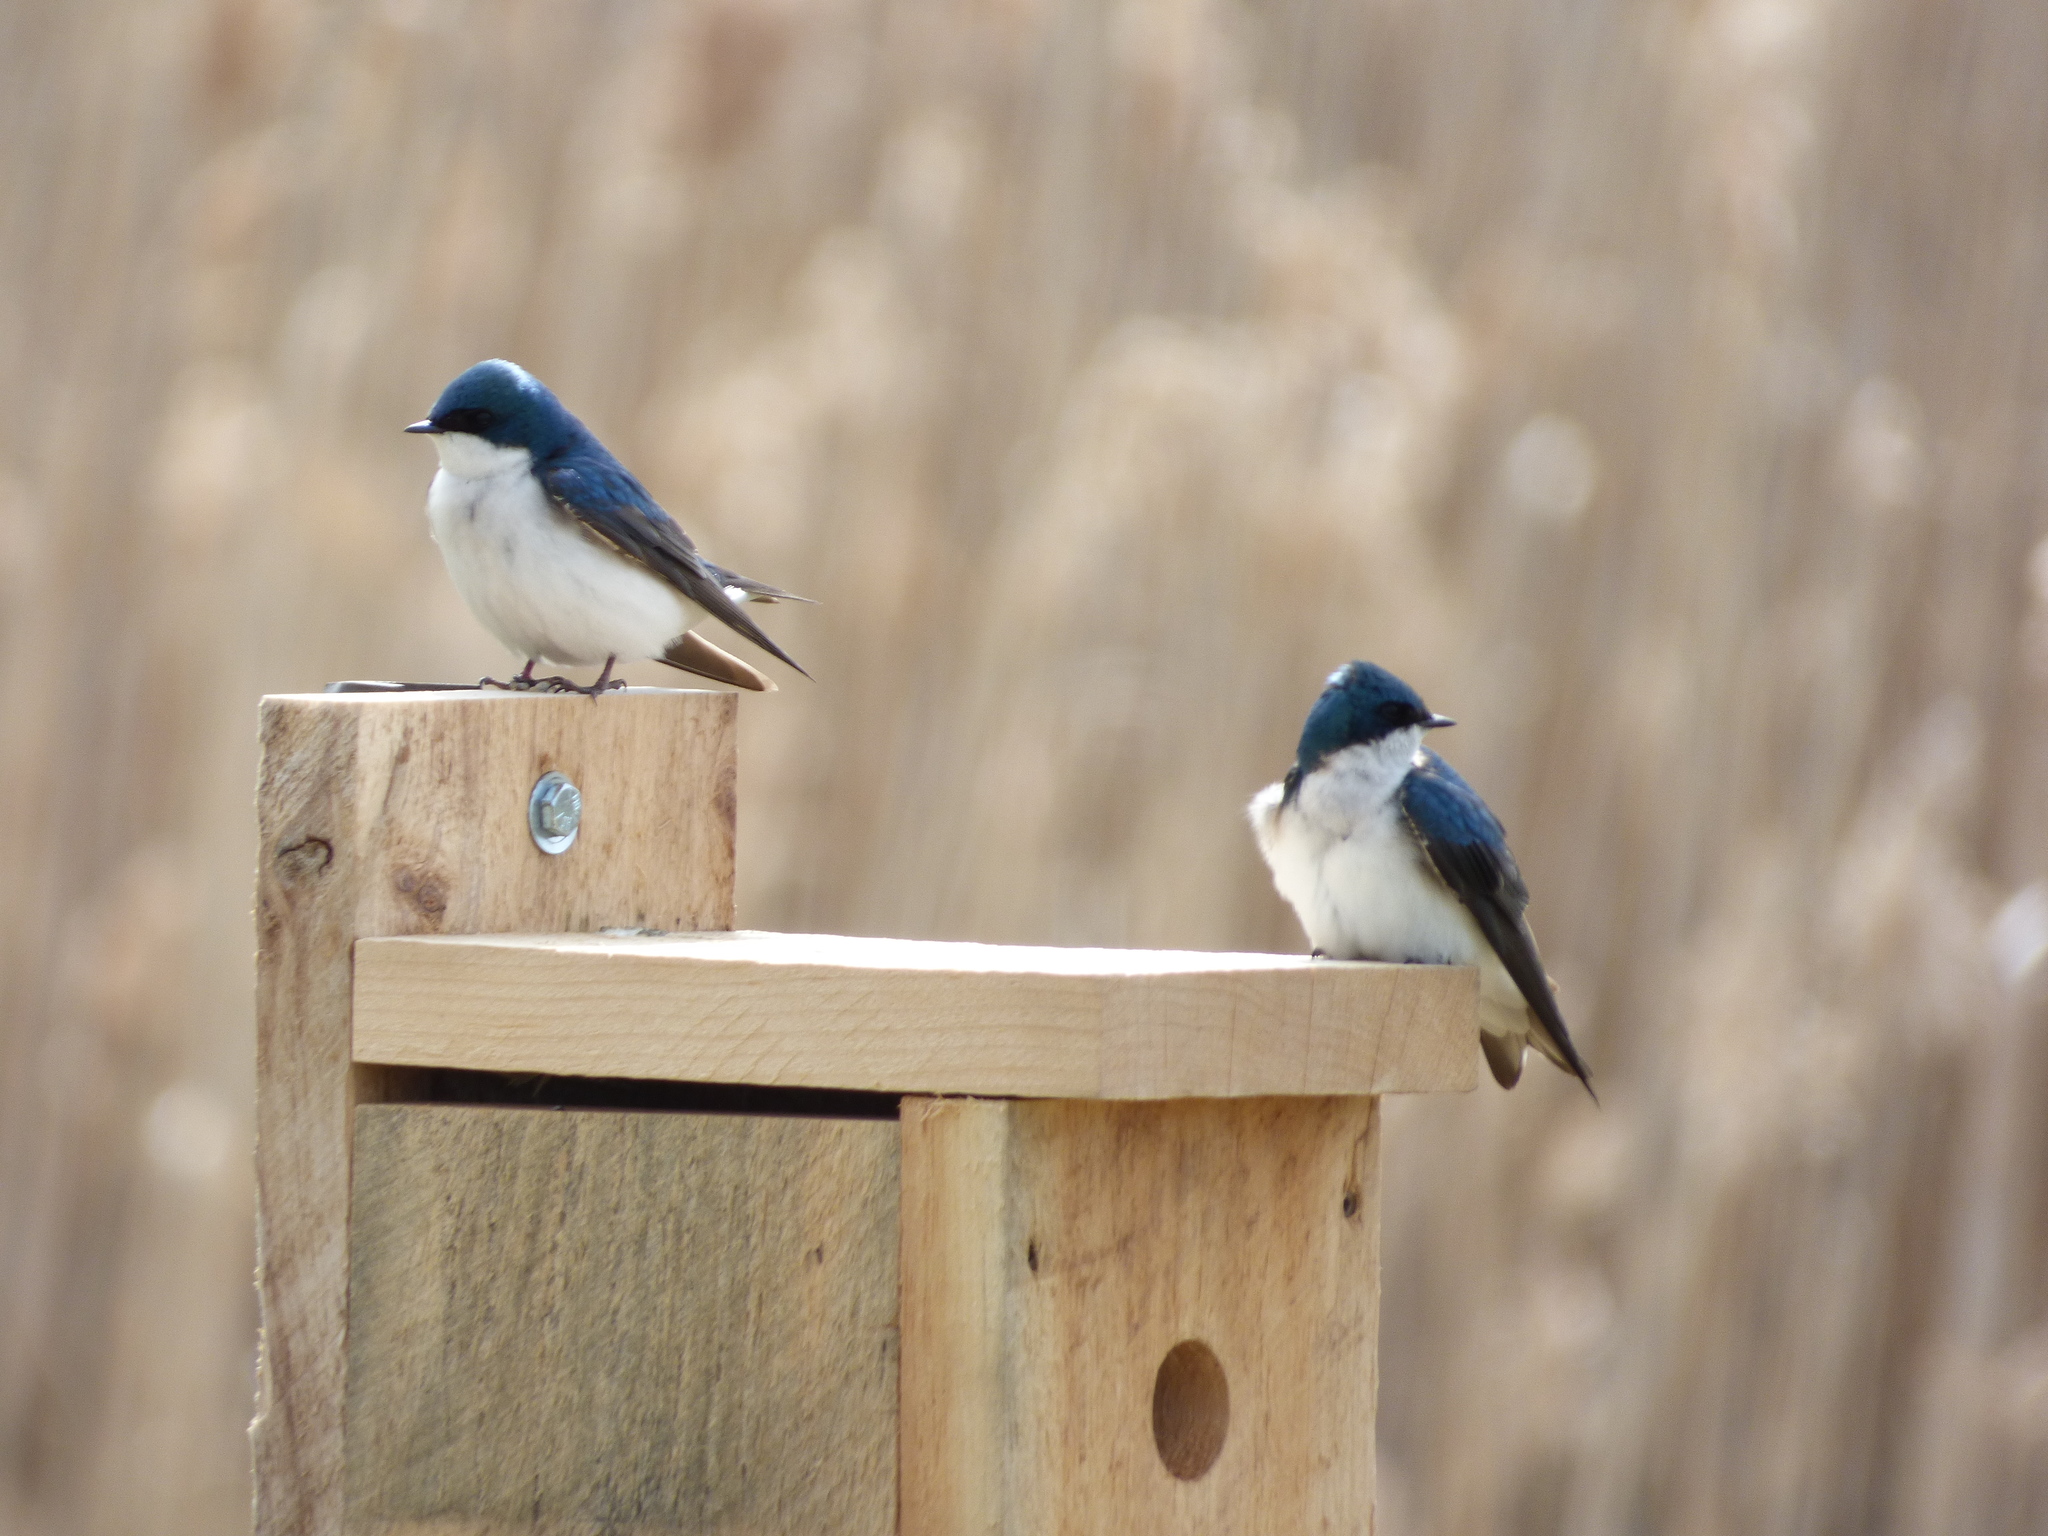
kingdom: Animalia
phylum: Chordata
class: Aves
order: Passeriformes
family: Hirundinidae
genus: Tachycineta
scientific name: Tachycineta bicolor
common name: Tree swallow
